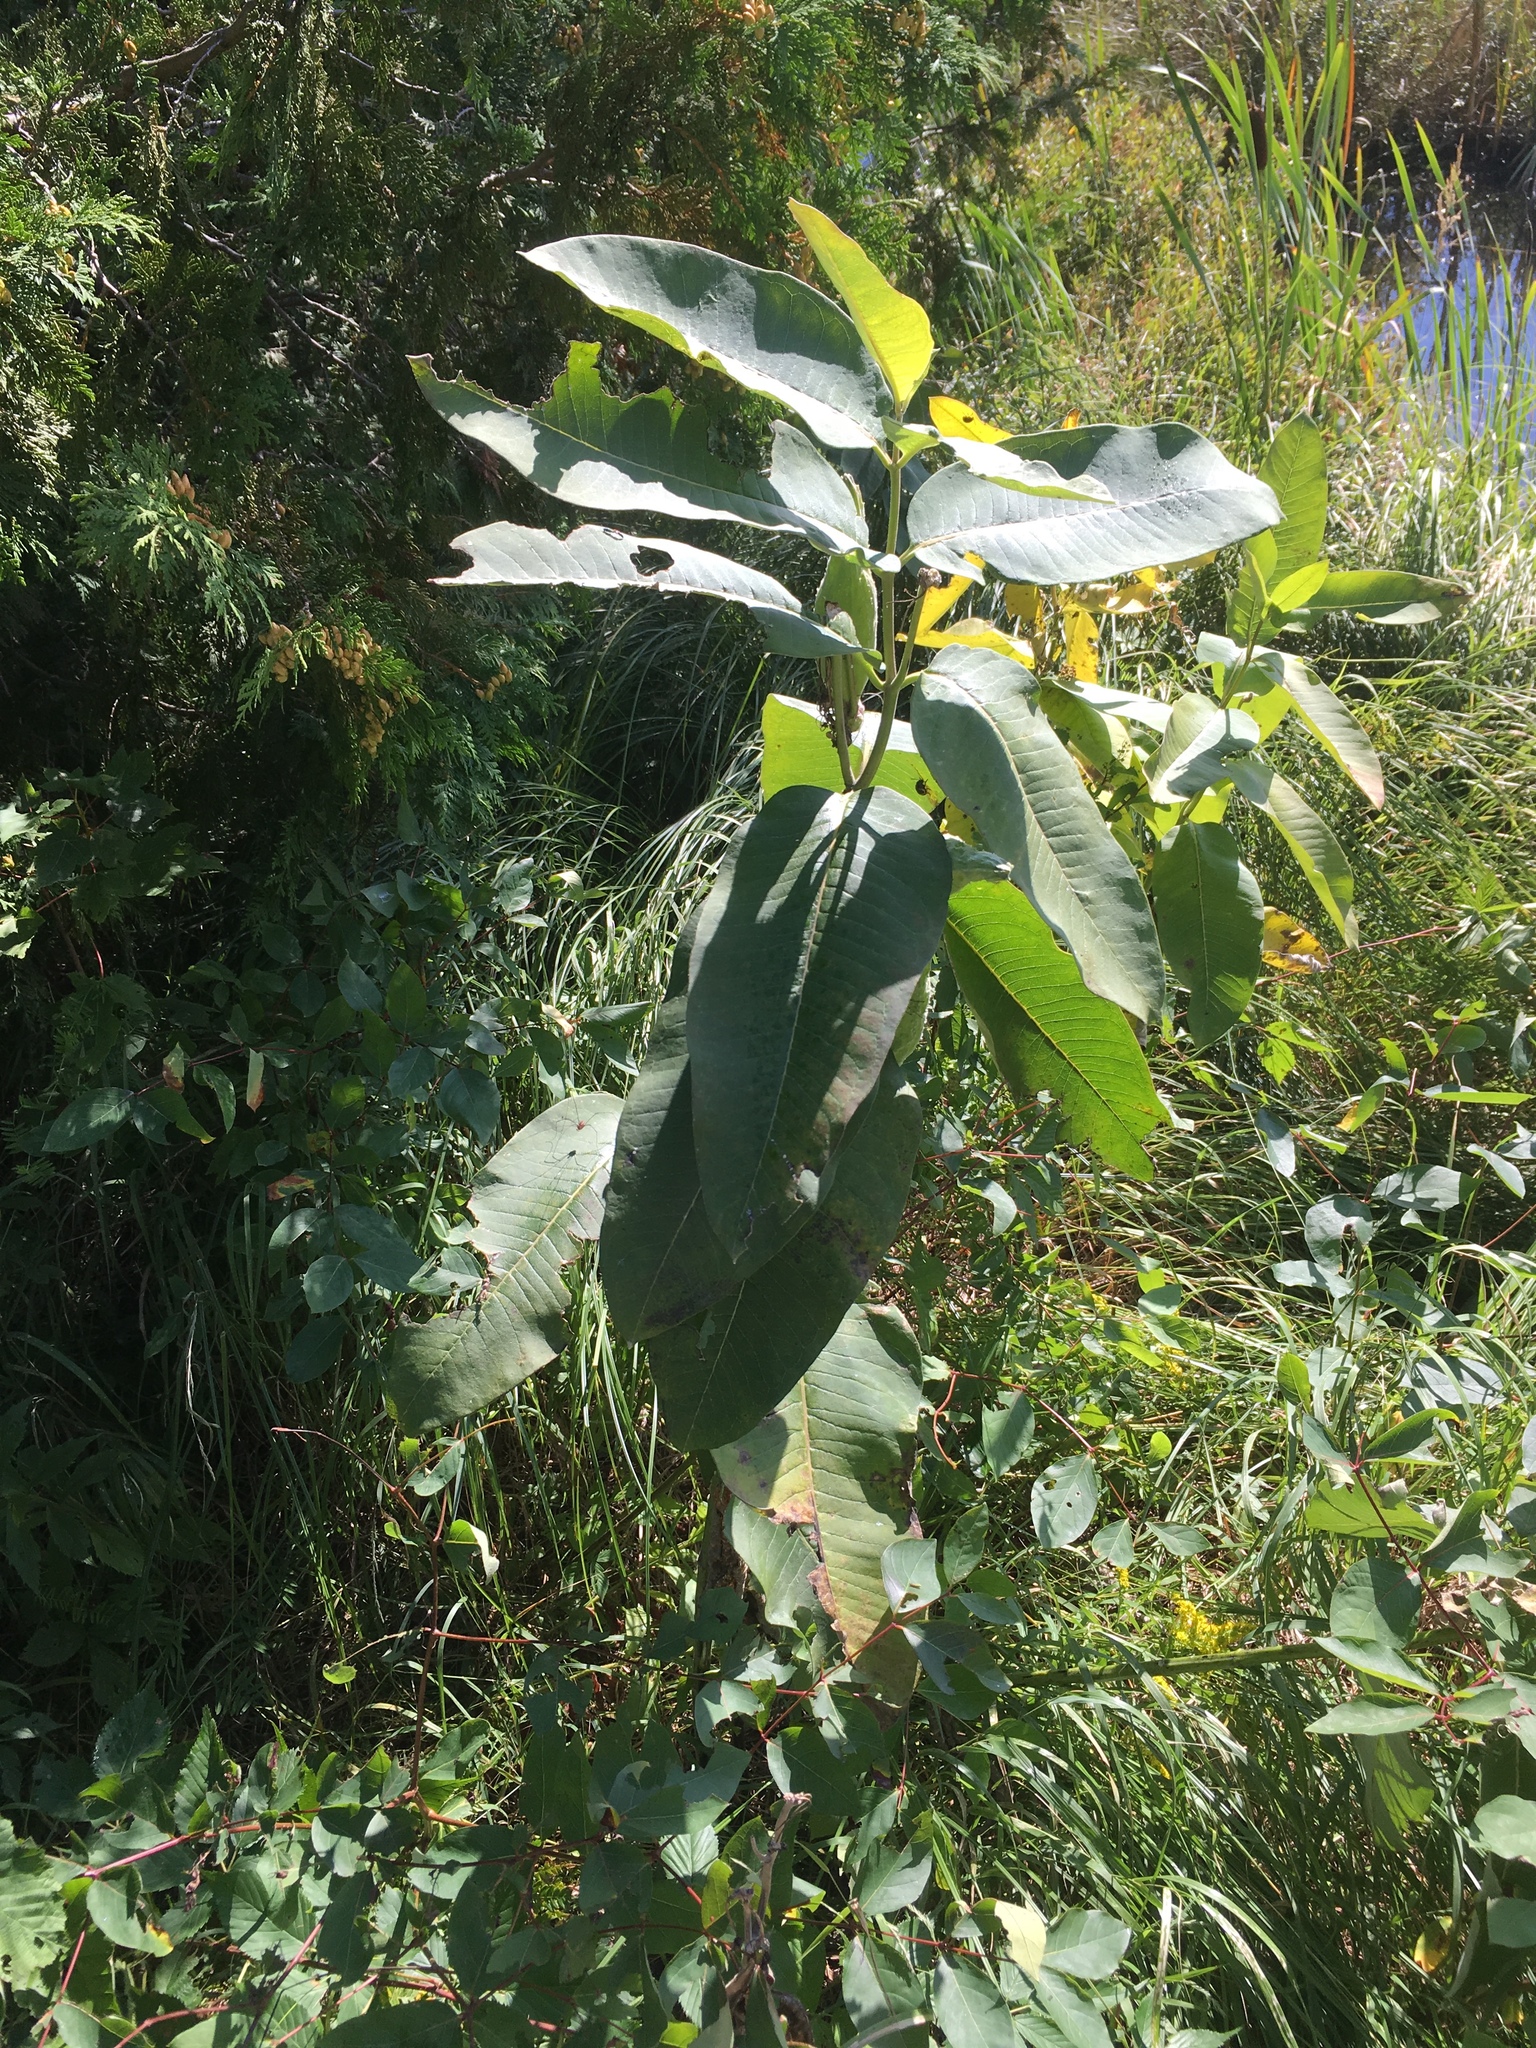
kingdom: Plantae
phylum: Tracheophyta
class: Magnoliopsida
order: Gentianales
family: Apocynaceae
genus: Asclepias
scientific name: Asclepias syriaca
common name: Common milkweed
